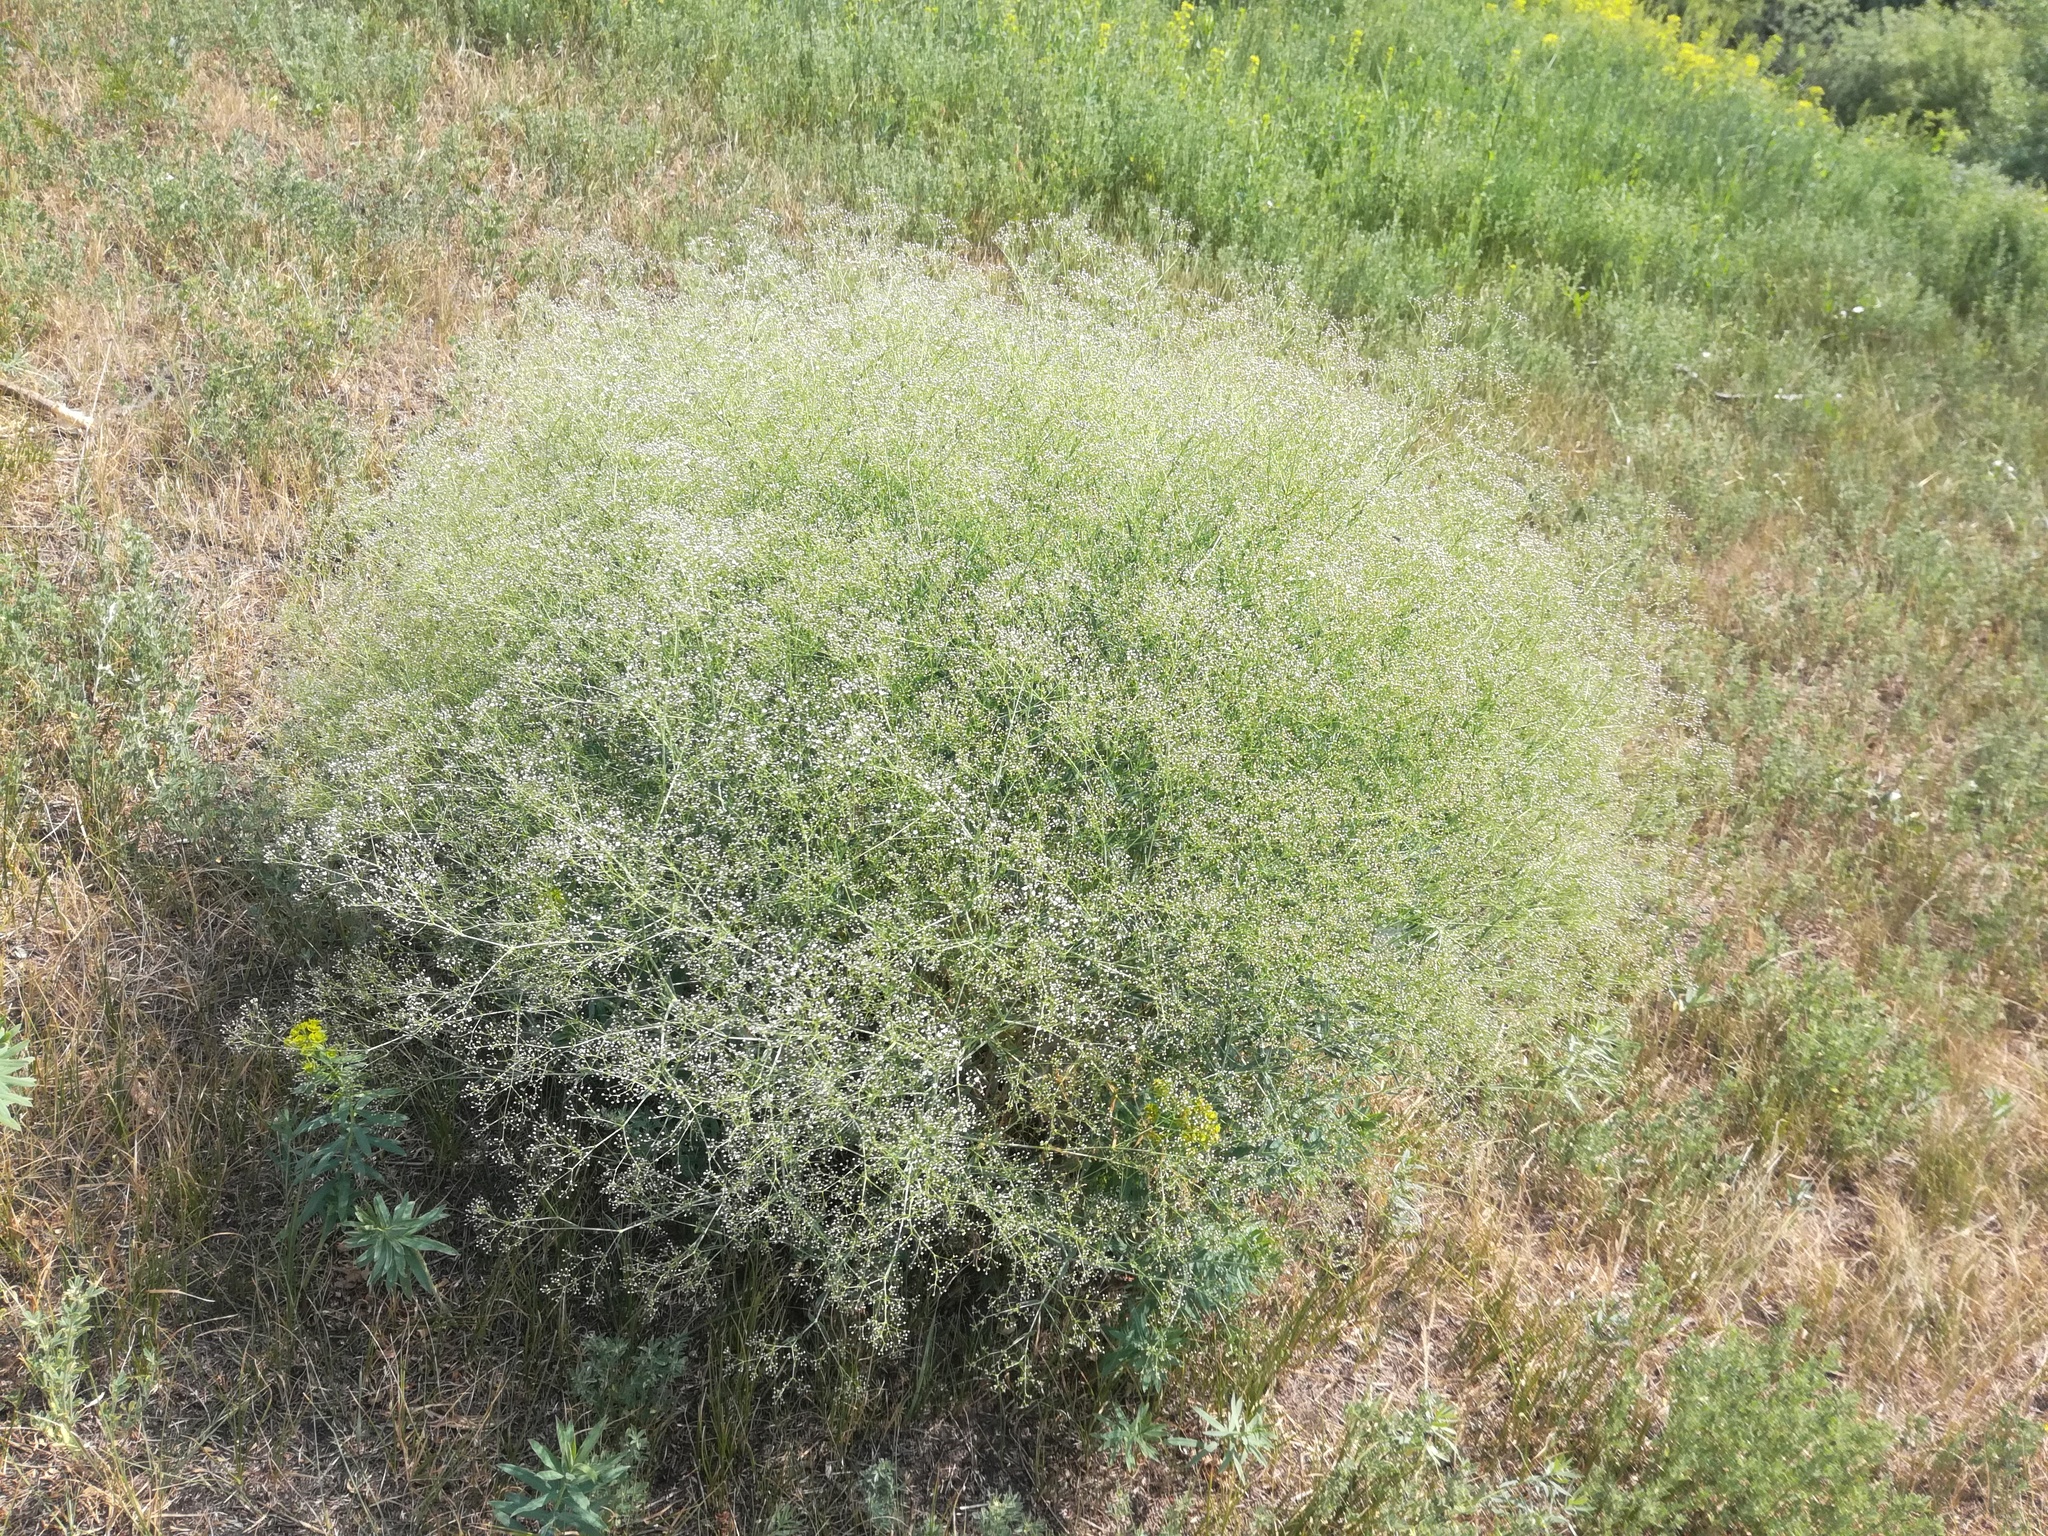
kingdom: Plantae
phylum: Tracheophyta
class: Magnoliopsida
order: Caryophyllales
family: Caryophyllaceae
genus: Gypsophila
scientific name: Gypsophila paniculata
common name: Baby's-breath
